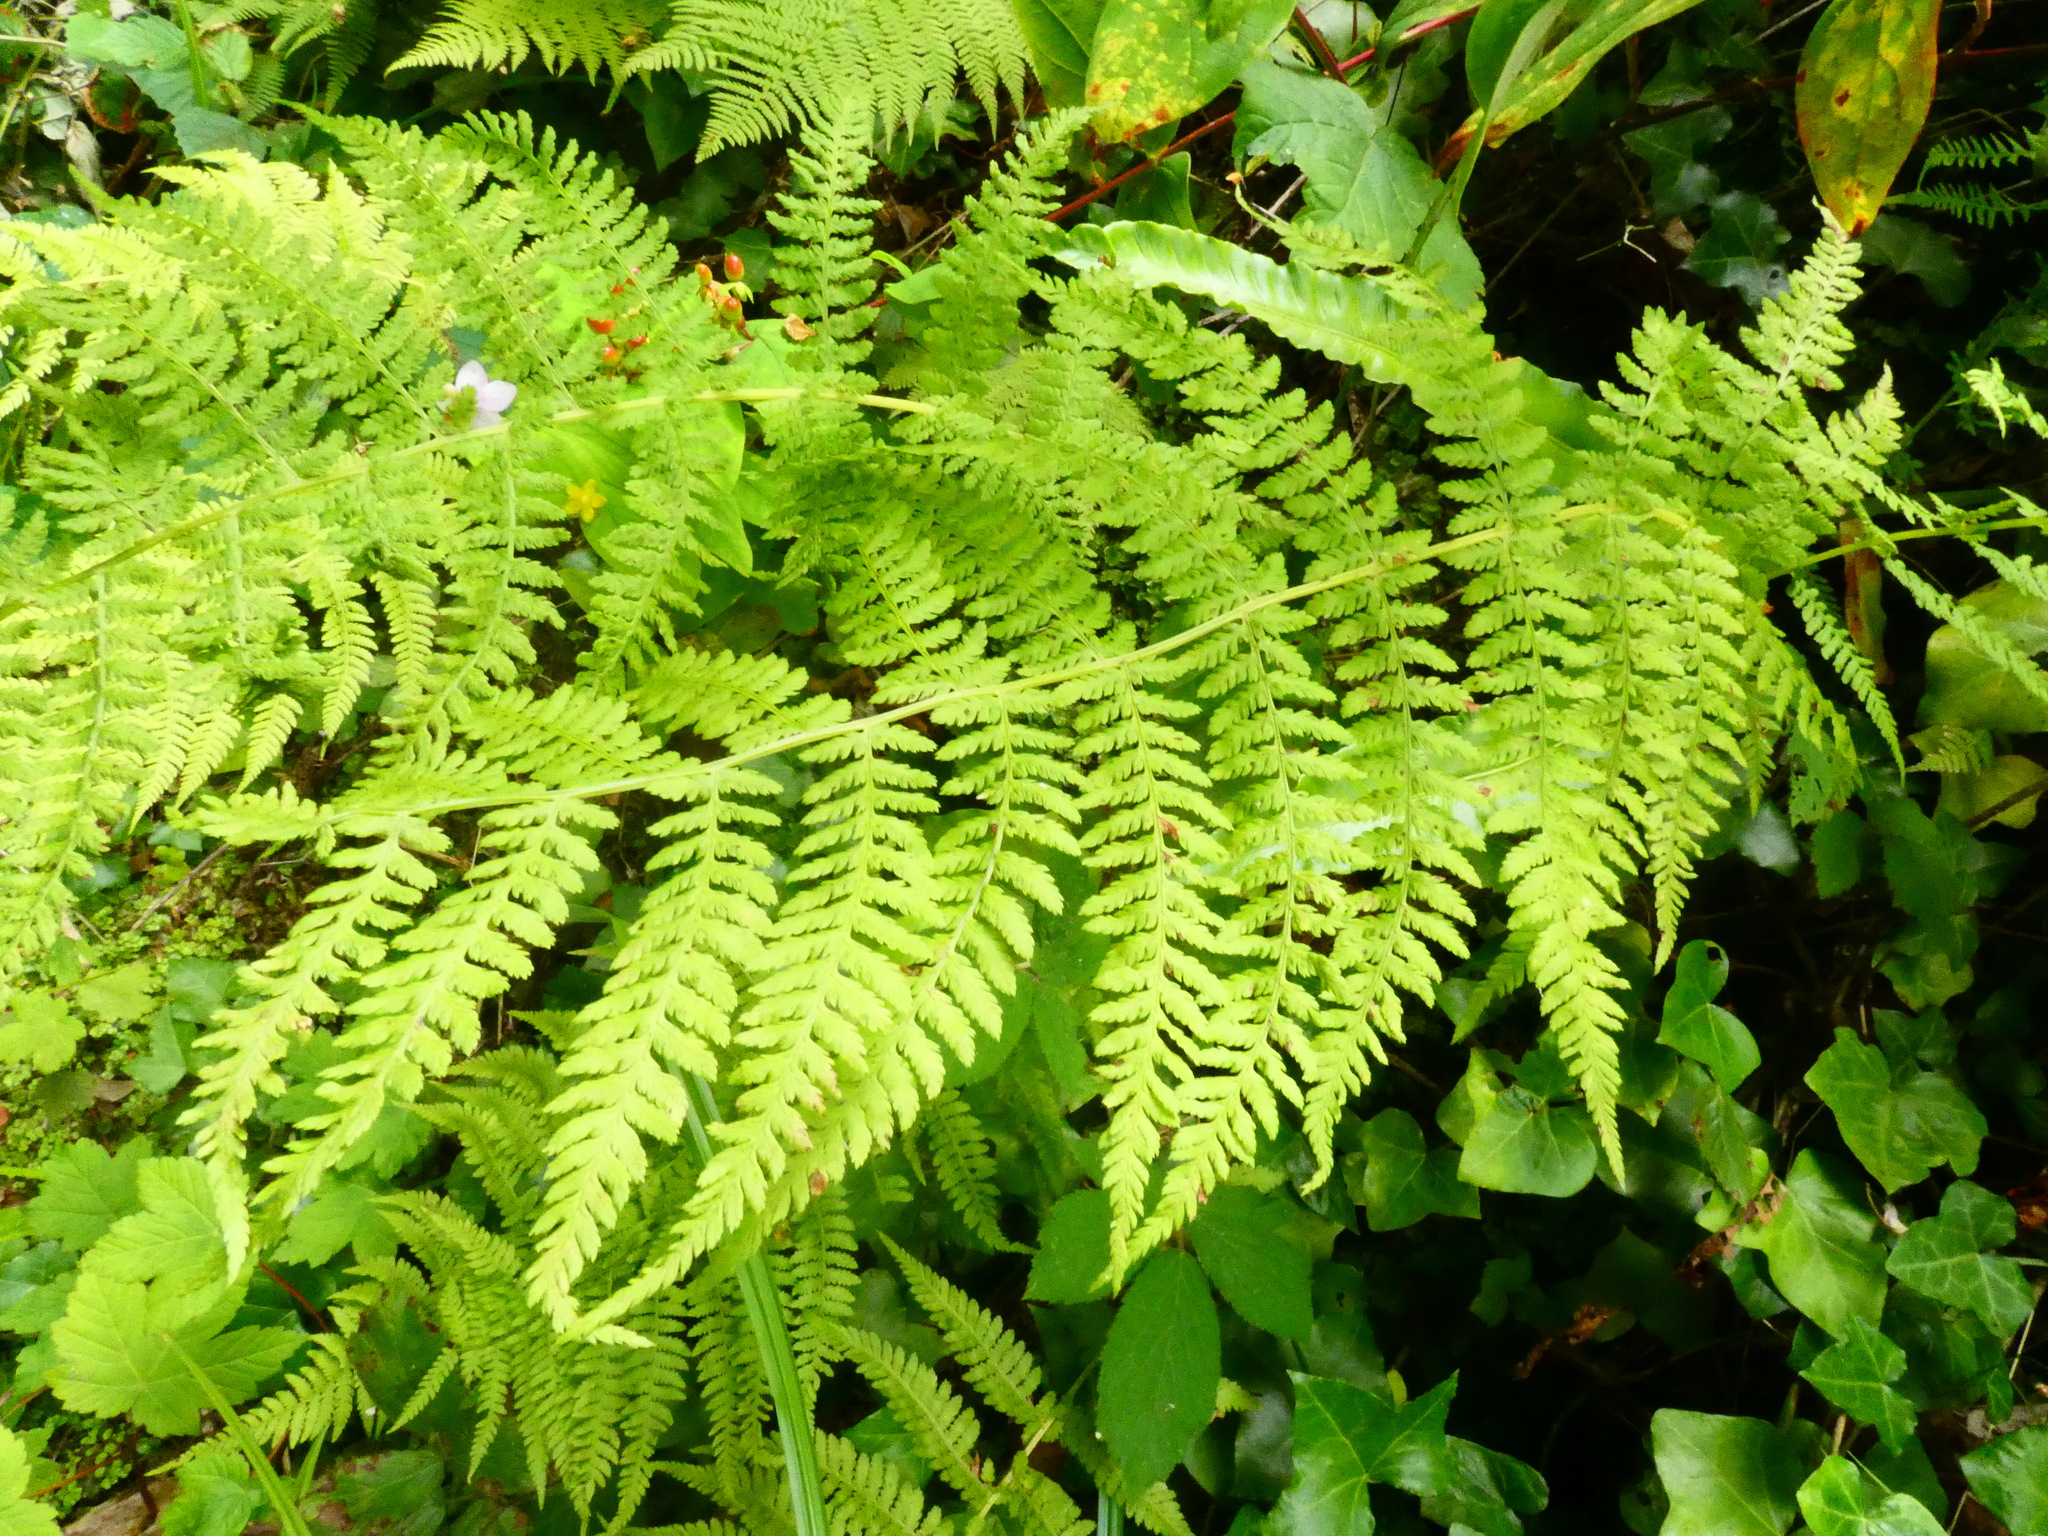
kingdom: Plantae
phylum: Tracheophyta
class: Polypodiopsida
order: Polypodiales
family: Athyriaceae
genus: Athyrium
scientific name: Athyrium filix-femina
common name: Lady fern
